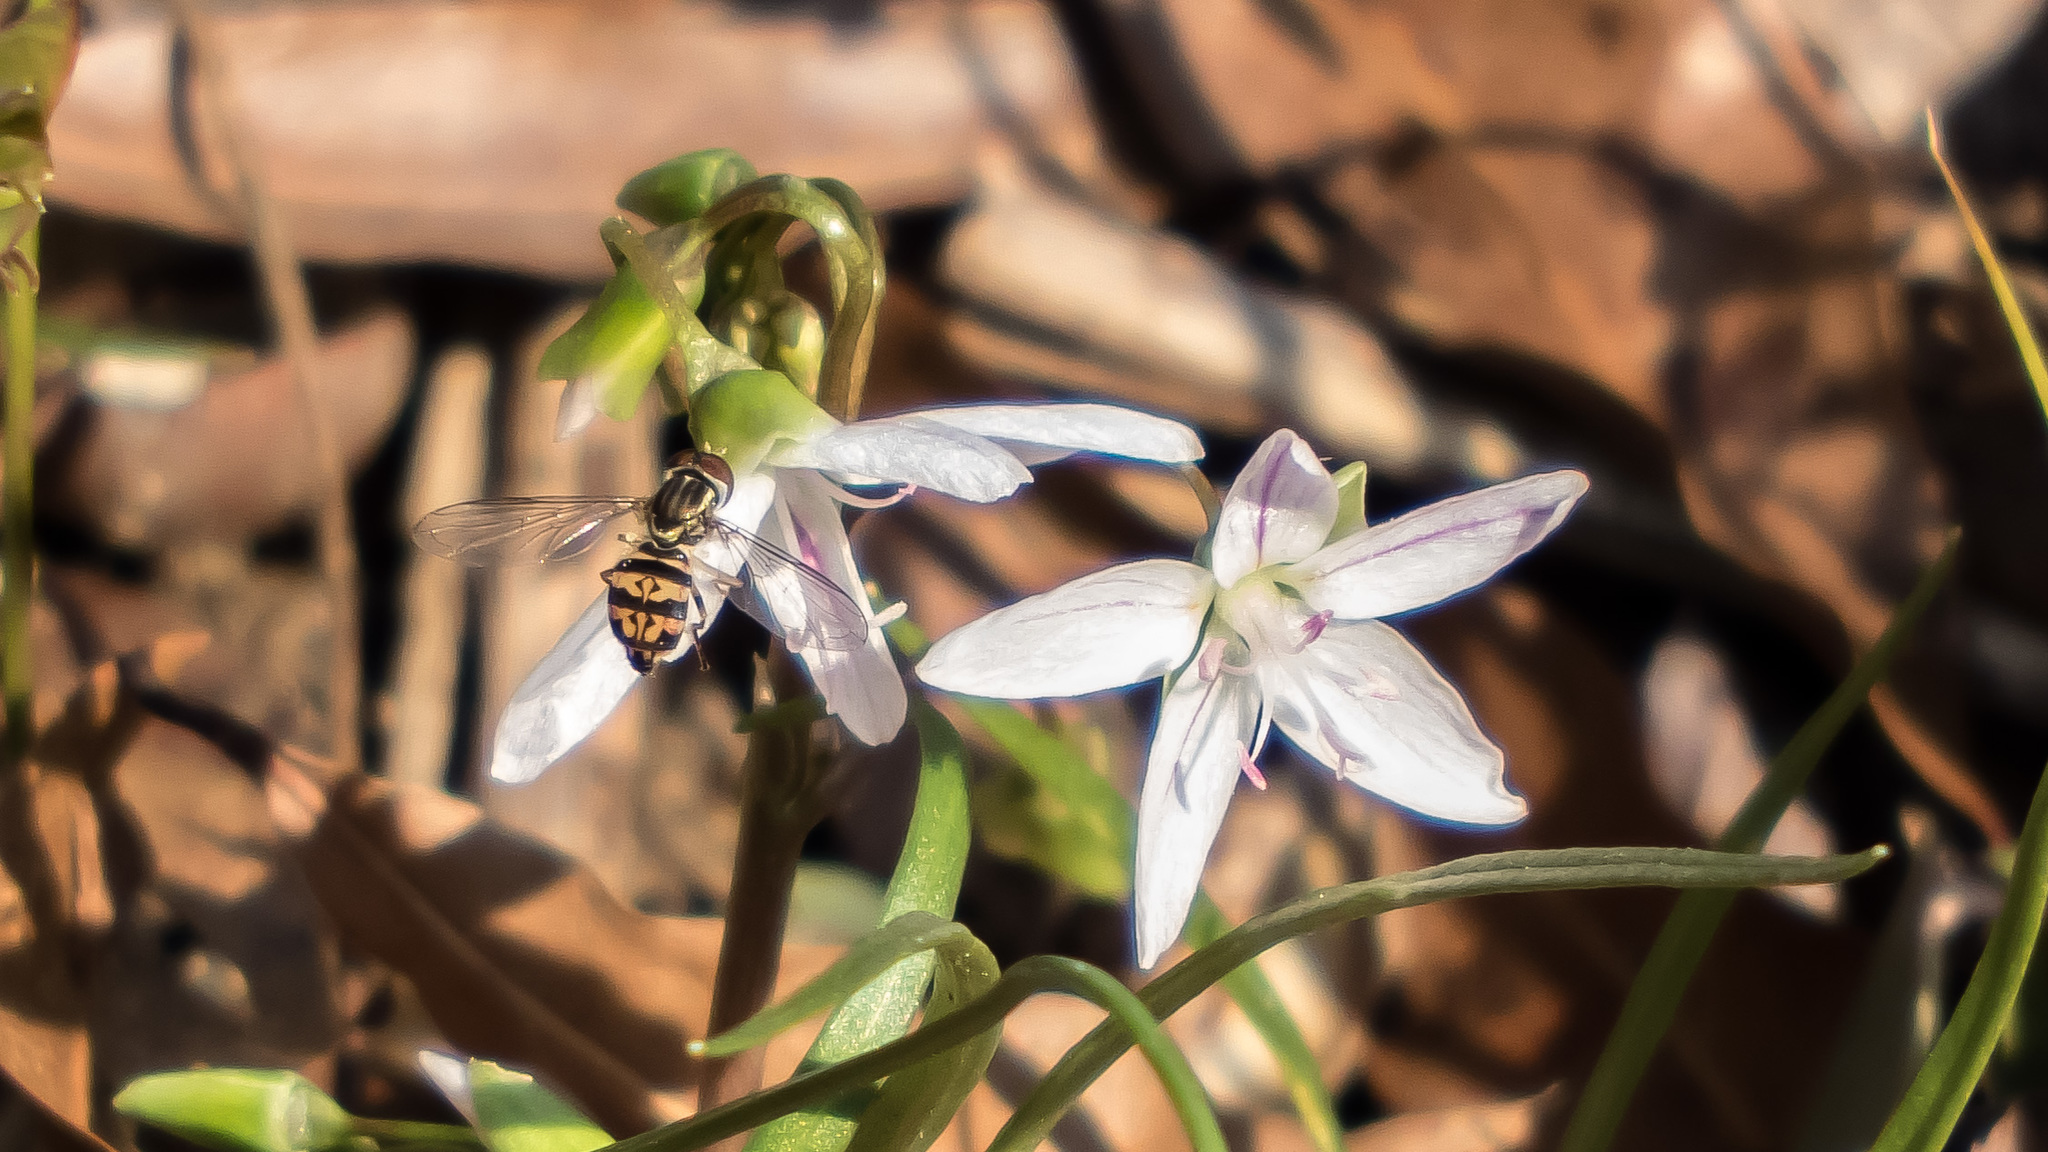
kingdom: Animalia
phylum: Arthropoda
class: Insecta
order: Diptera
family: Syrphidae
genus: Toxomerus
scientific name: Toxomerus geminatus
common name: Eastern calligrapher
